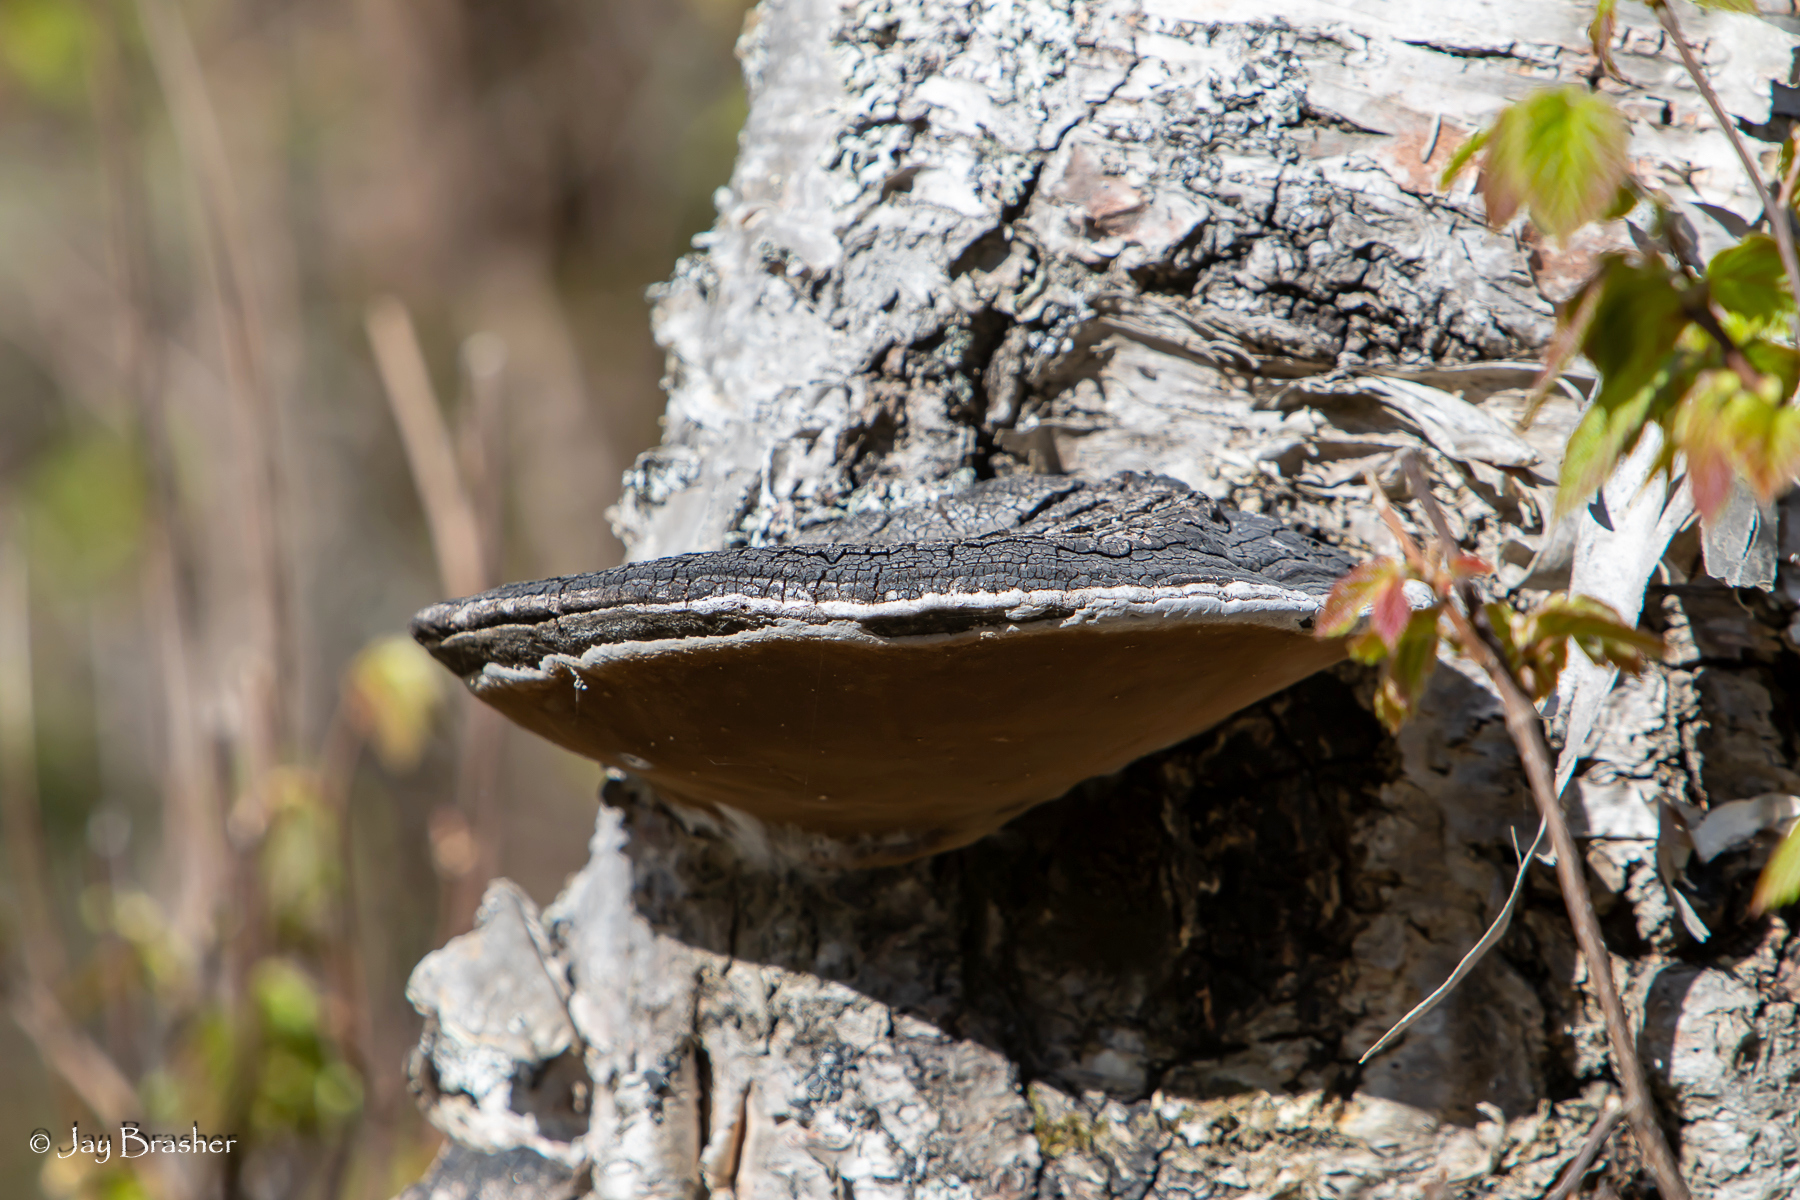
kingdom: Fungi
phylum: Basidiomycota
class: Agaricomycetes
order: Hymenochaetales
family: Hymenochaetaceae
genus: Phellinus
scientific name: Phellinus igniarius
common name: Willow bracket
